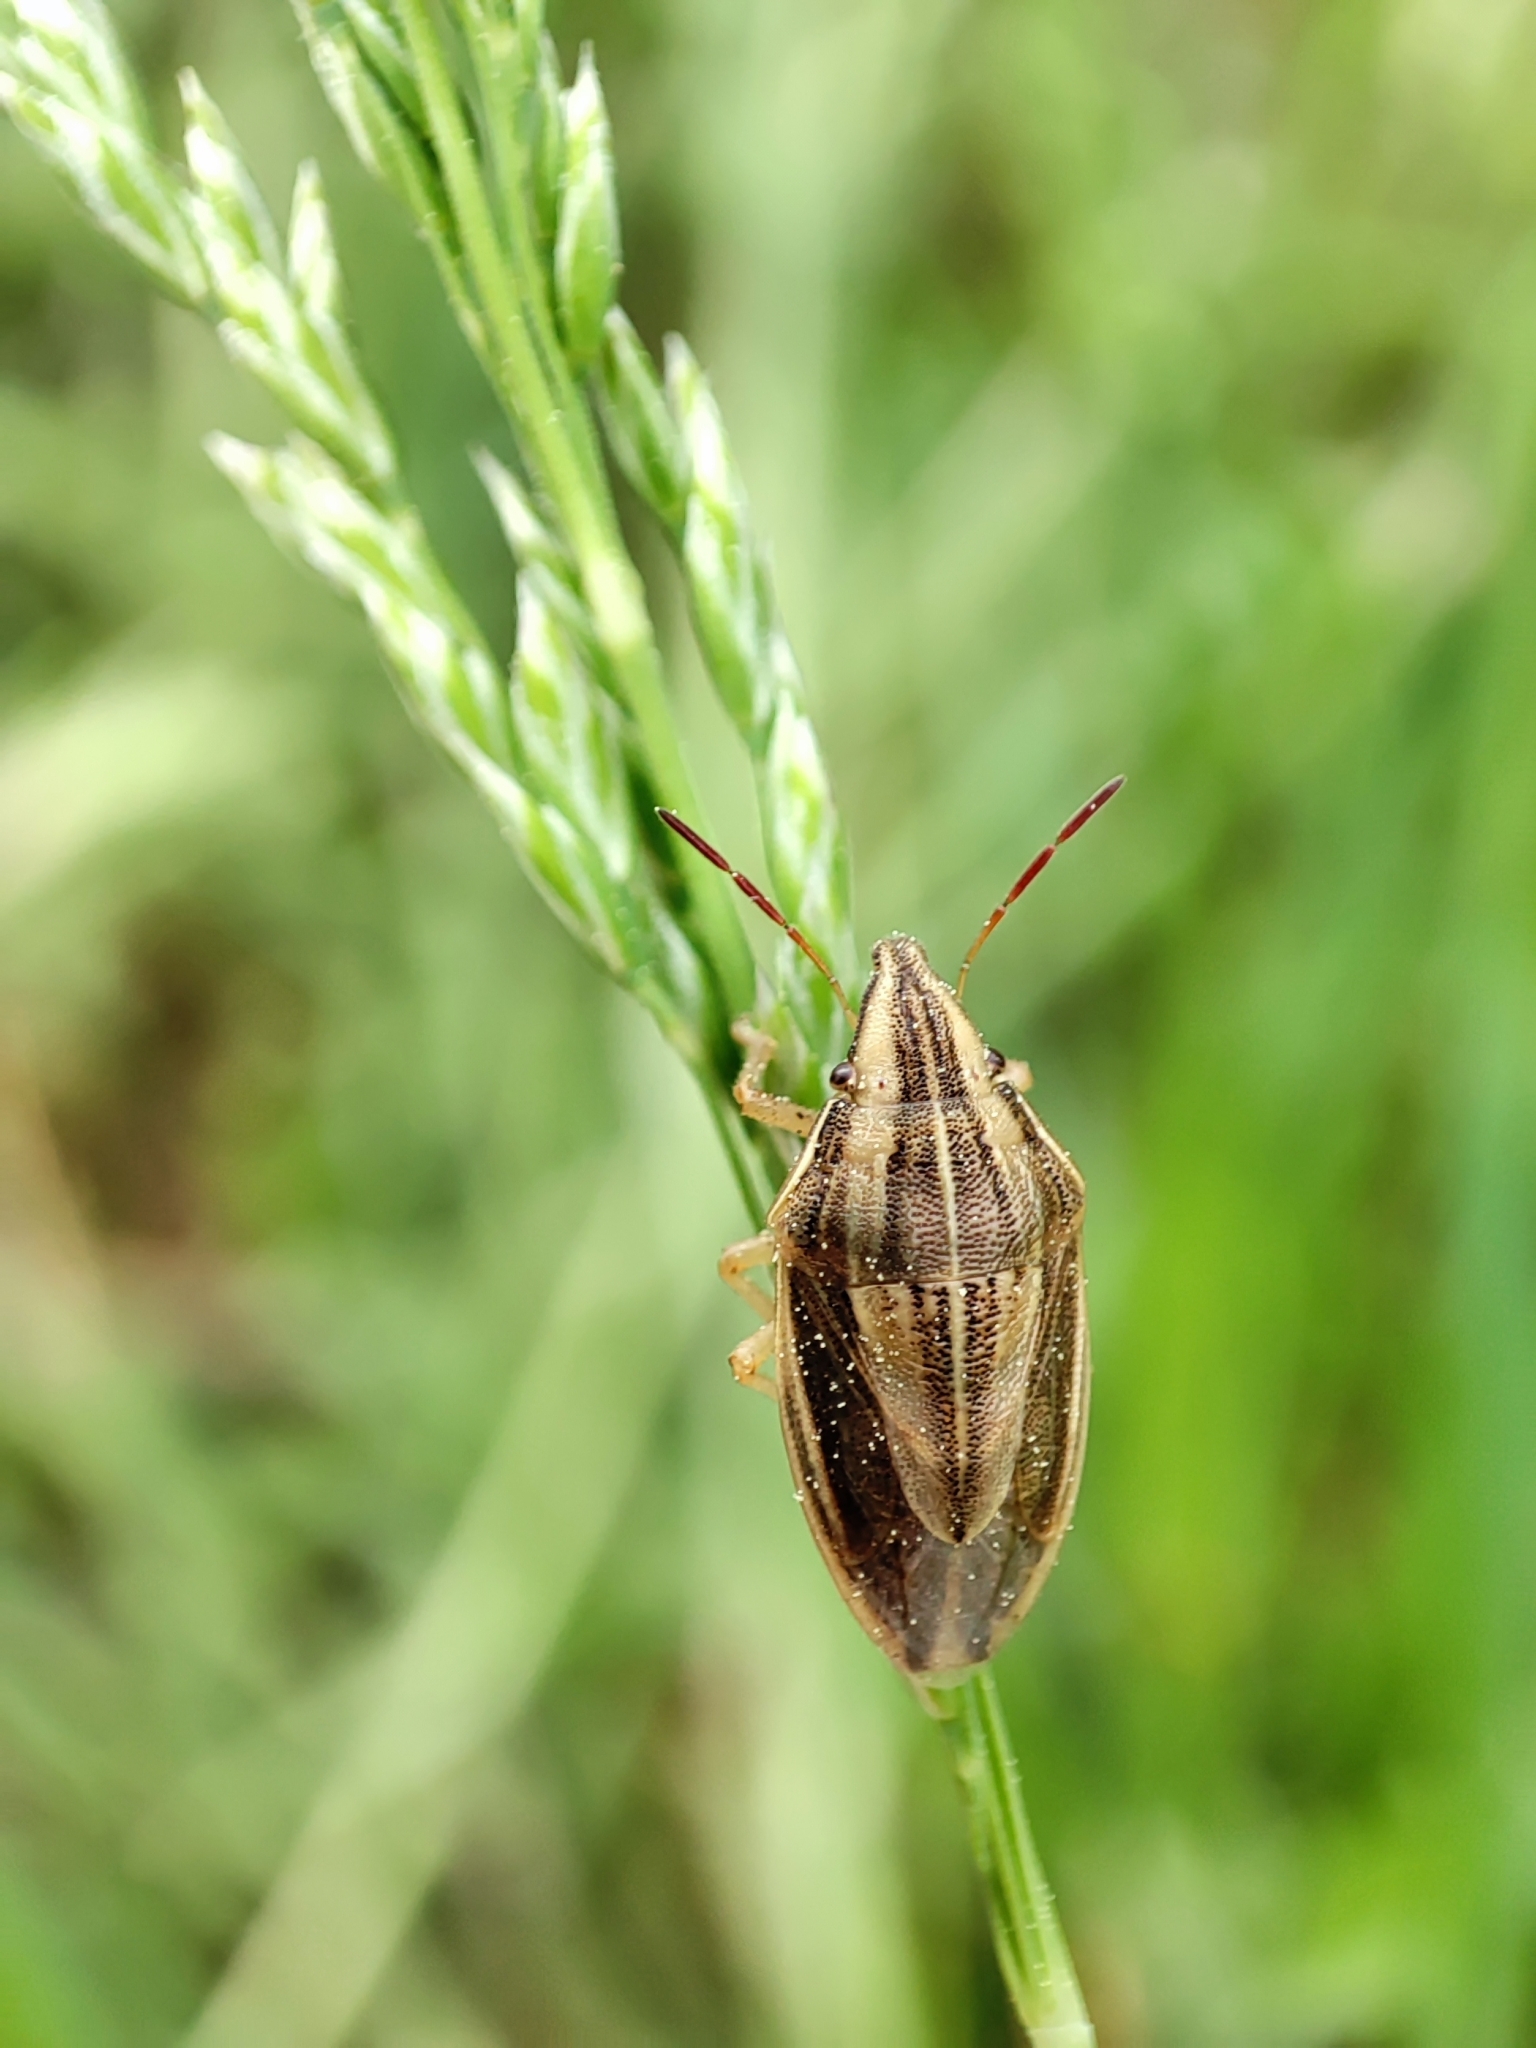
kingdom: Animalia
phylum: Arthropoda
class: Insecta
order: Hemiptera
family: Pentatomidae
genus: Aelia
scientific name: Aelia acuminata
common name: Bishop's mitre
